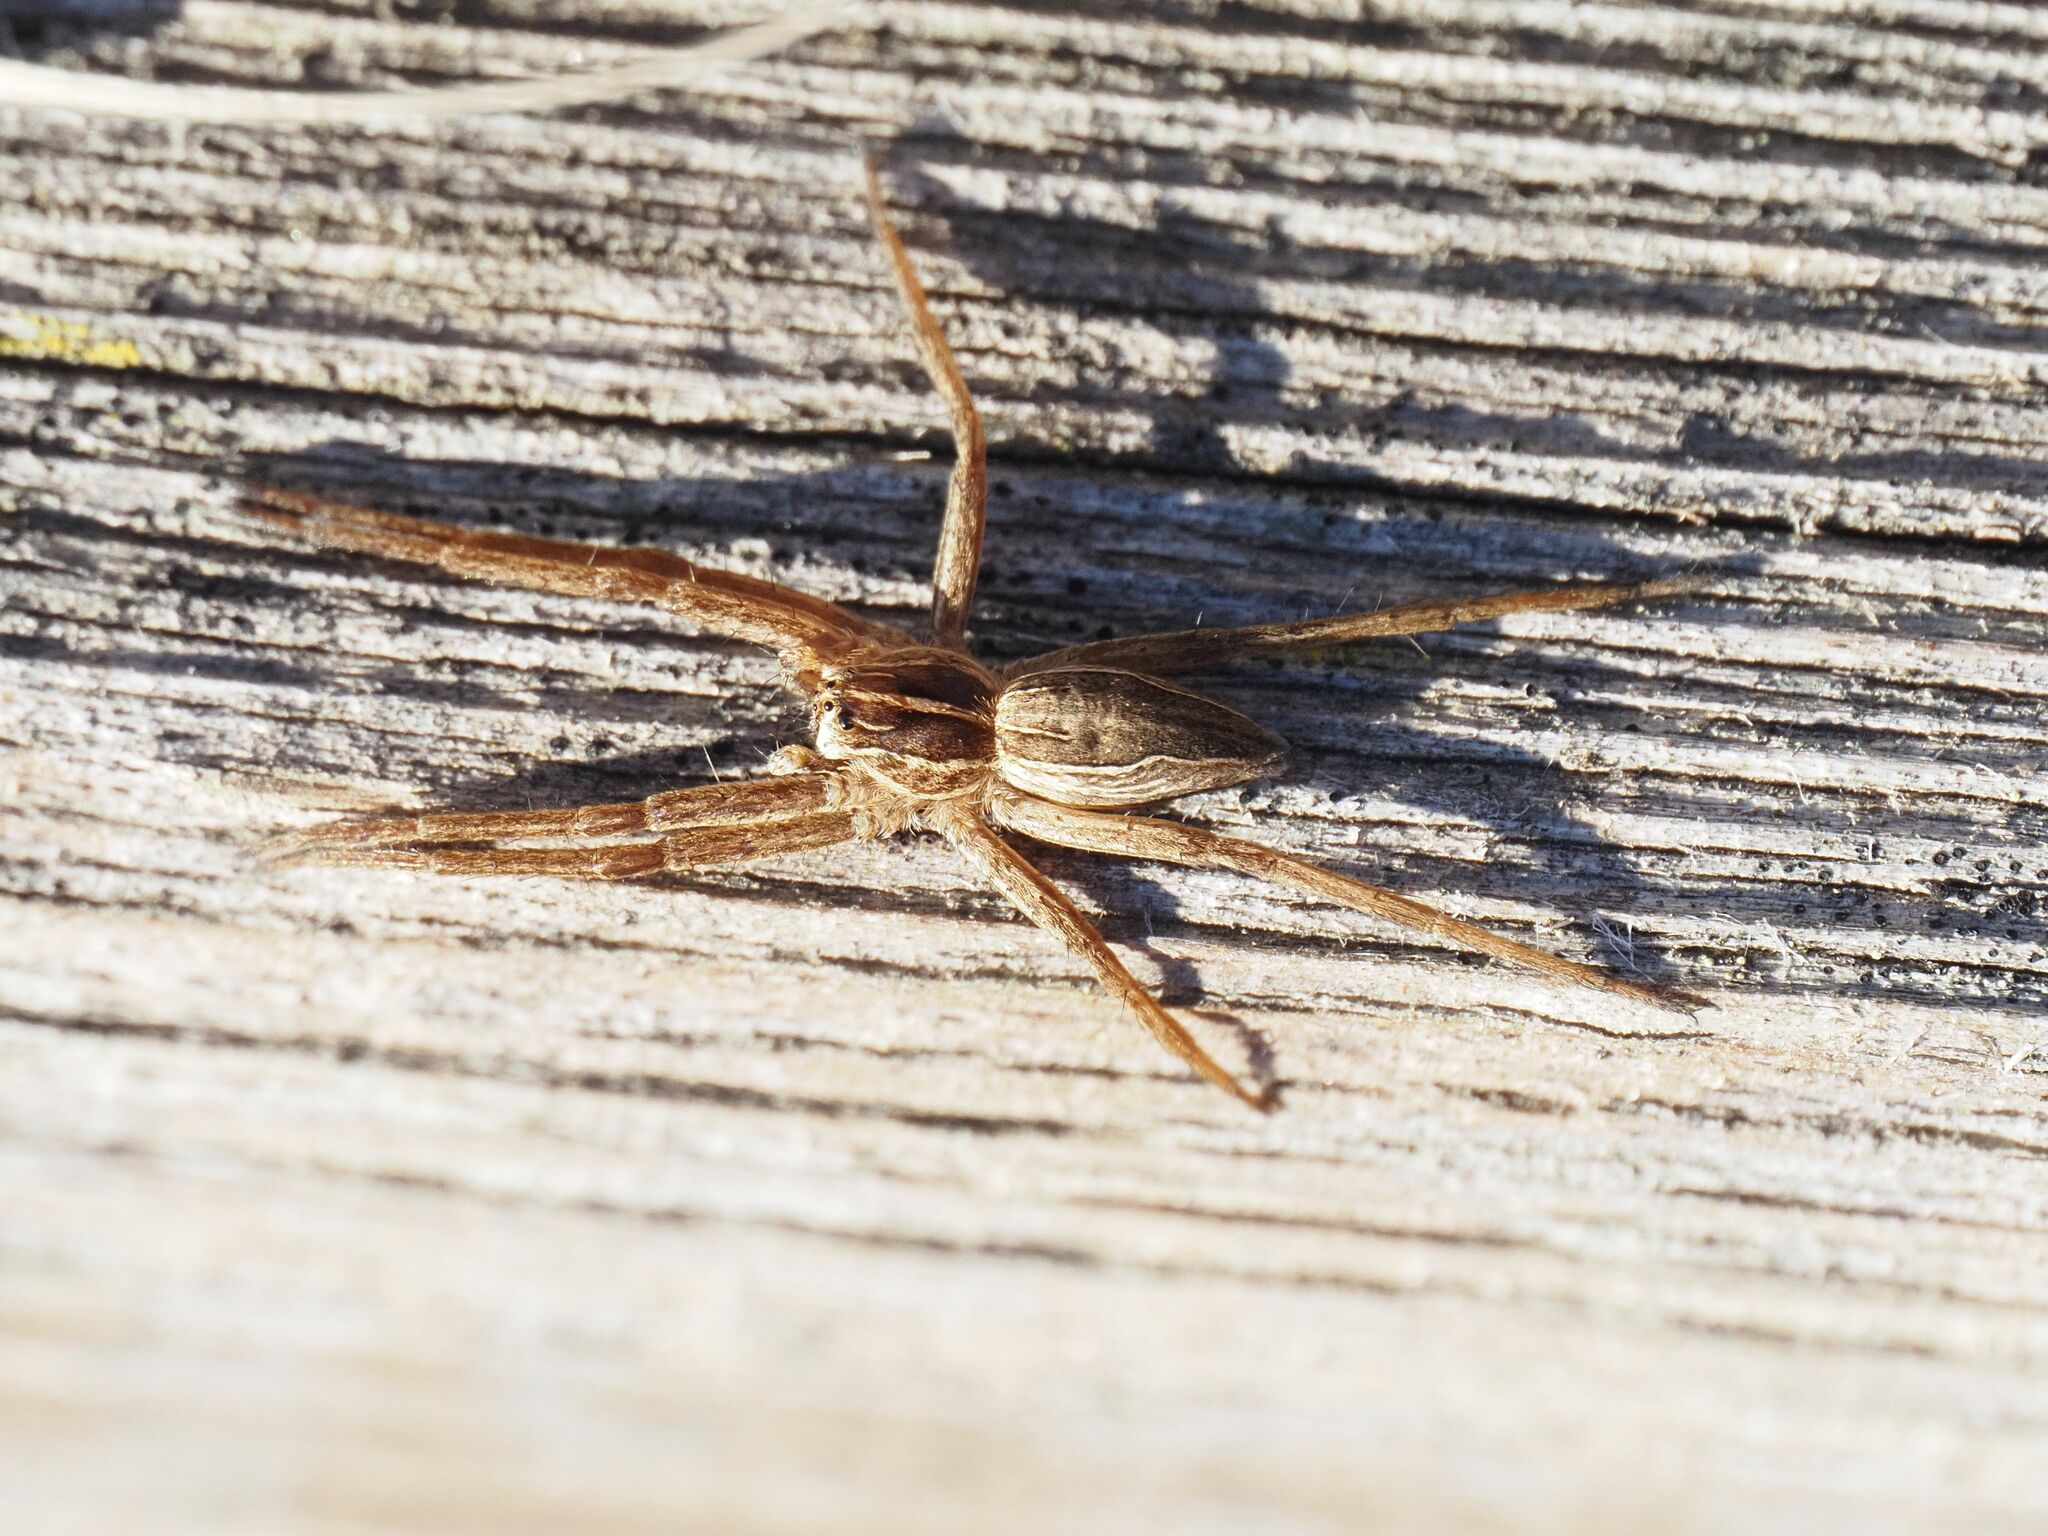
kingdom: Animalia
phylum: Arthropoda
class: Arachnida
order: Araneae
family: Pisauridae
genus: Pisaura
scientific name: Pisaura mirabilis
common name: Tent spider
